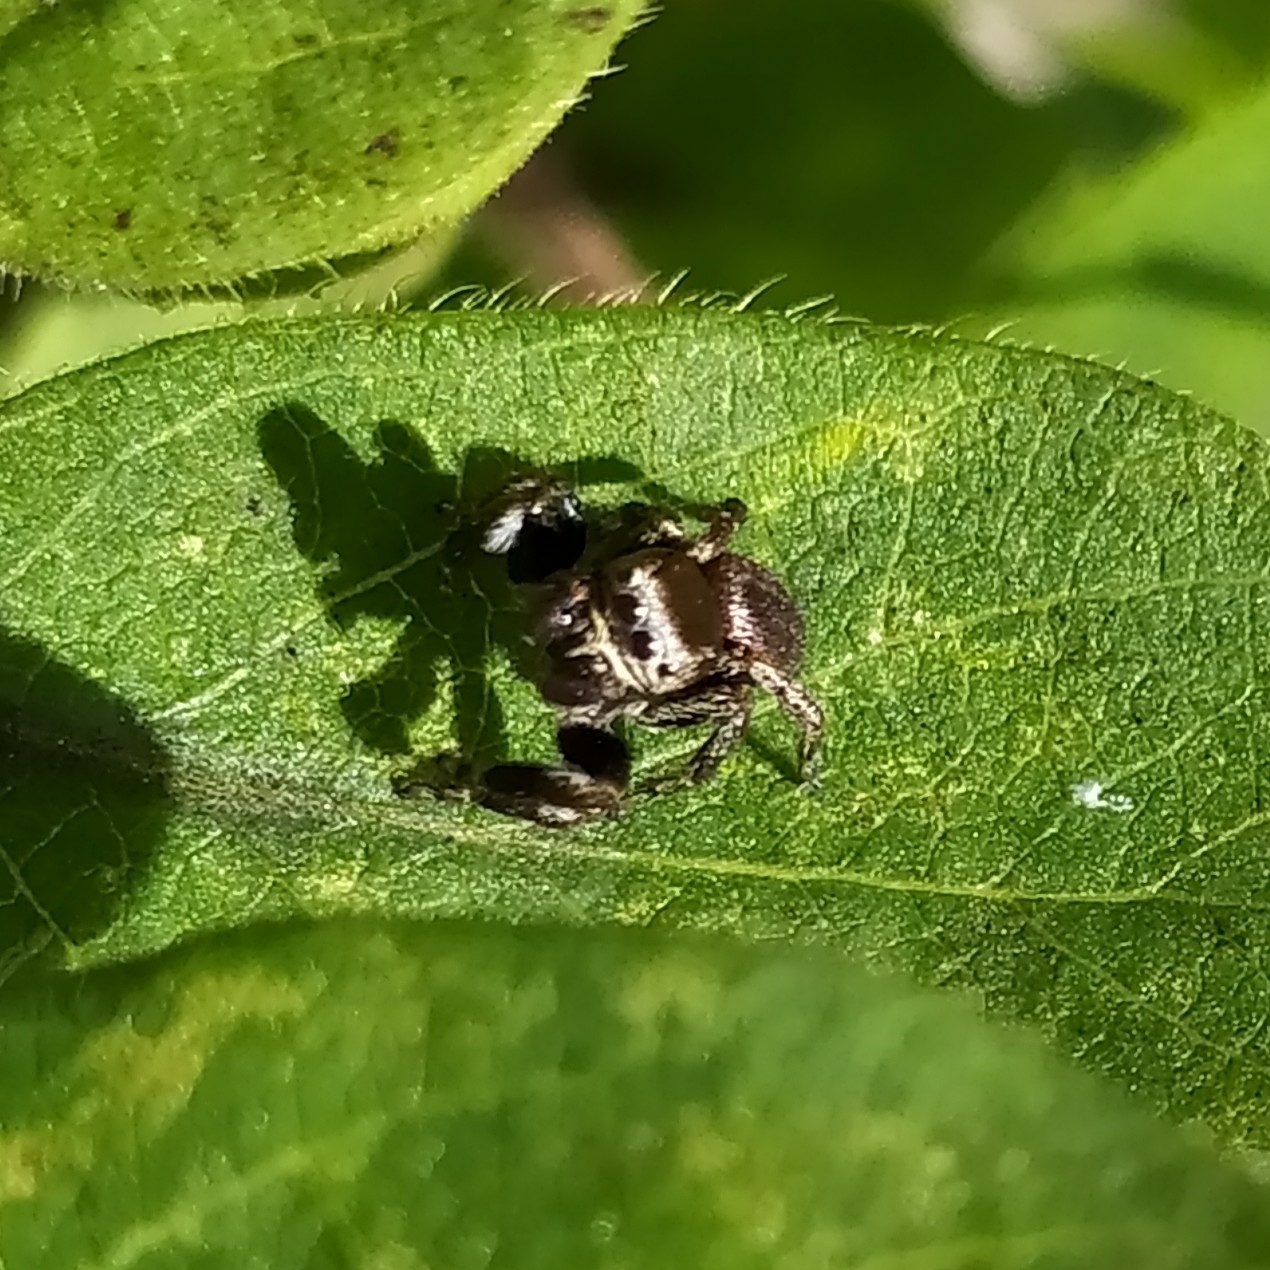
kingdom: Animalia
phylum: Arthropoda
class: Arachnida
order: Araneae
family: Salticidae
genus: Evarcha
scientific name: Evarcha arcuata
